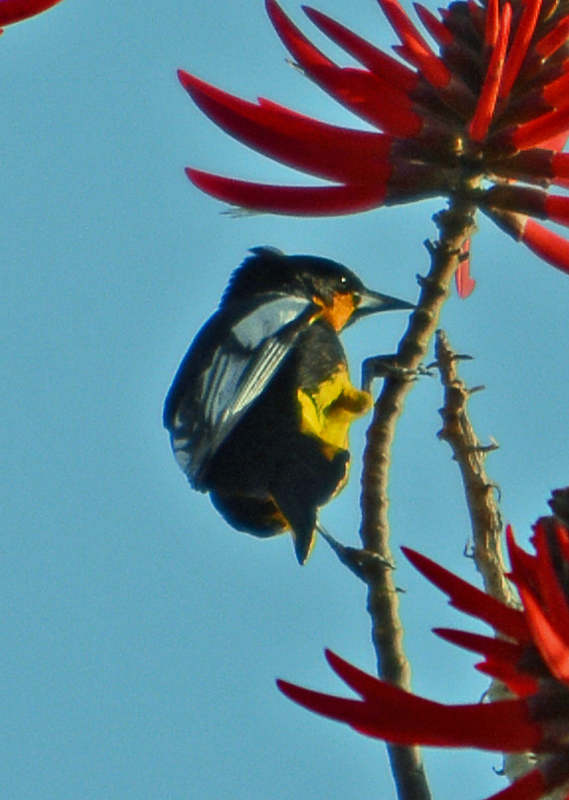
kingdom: Animalia
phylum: Chordata
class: Aves
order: Passeriformes
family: Icteridae
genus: Icterus
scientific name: Icterus abeillei
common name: Black-backed oriole
